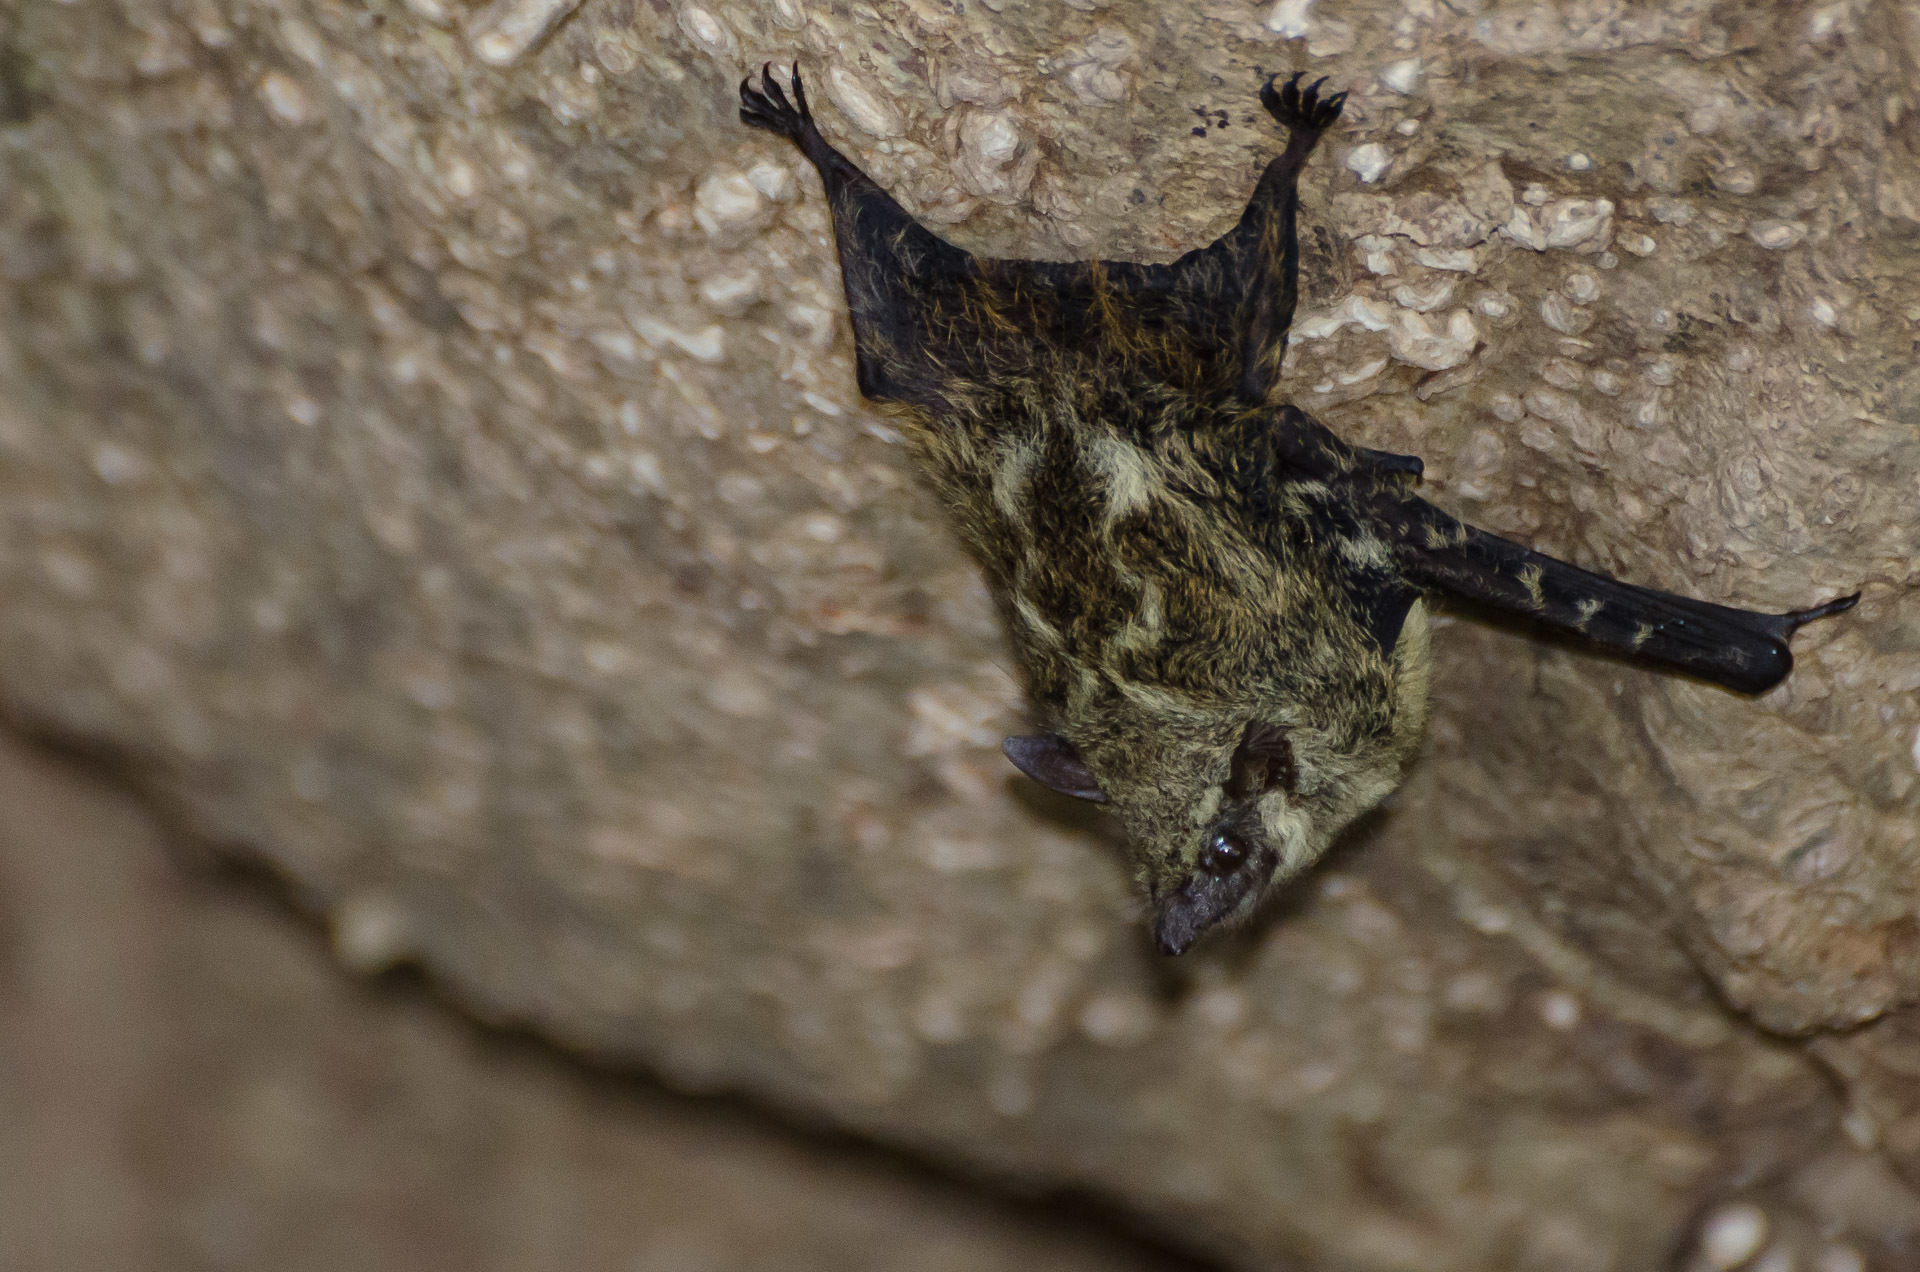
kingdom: Animalia
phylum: Chordata
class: Mammalia
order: Chiroptera
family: Emballonuridae
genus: Rhynchonycteris
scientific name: Rhynchonycteris naso
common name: Proboscis bat
